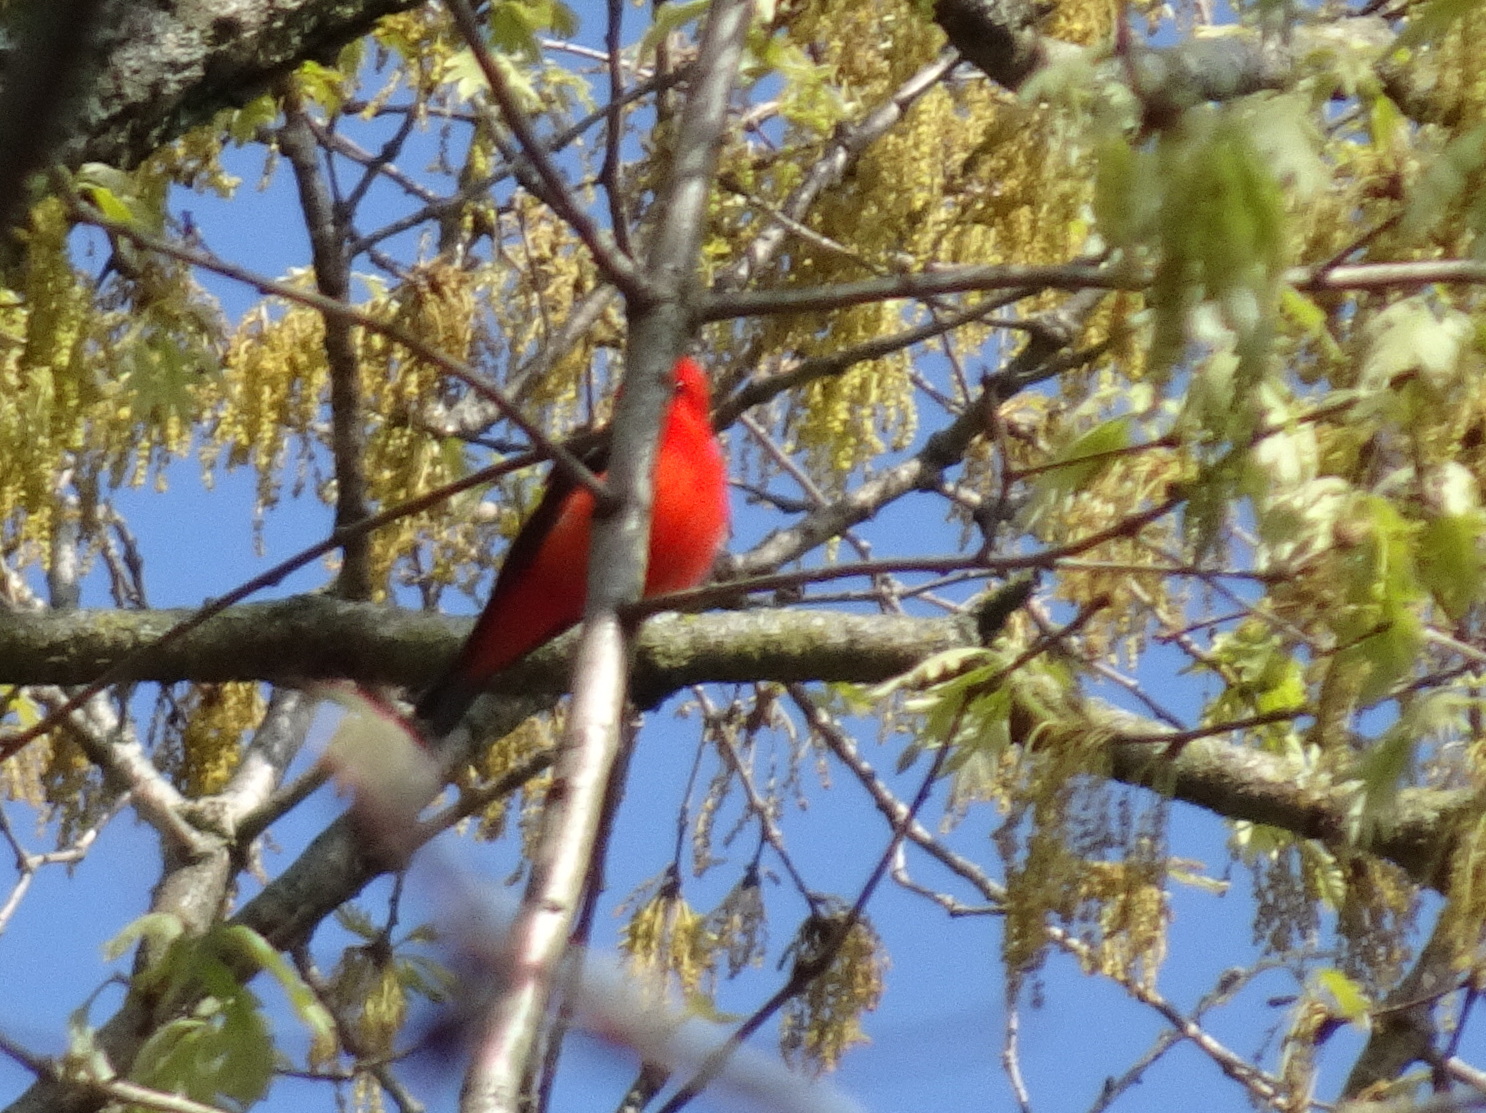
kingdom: Animalia
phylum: Chordata
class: Aves
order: Passeriformes
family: Cardinalidae
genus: Piranga
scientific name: Piranga olivacea
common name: Scarlet tanager
